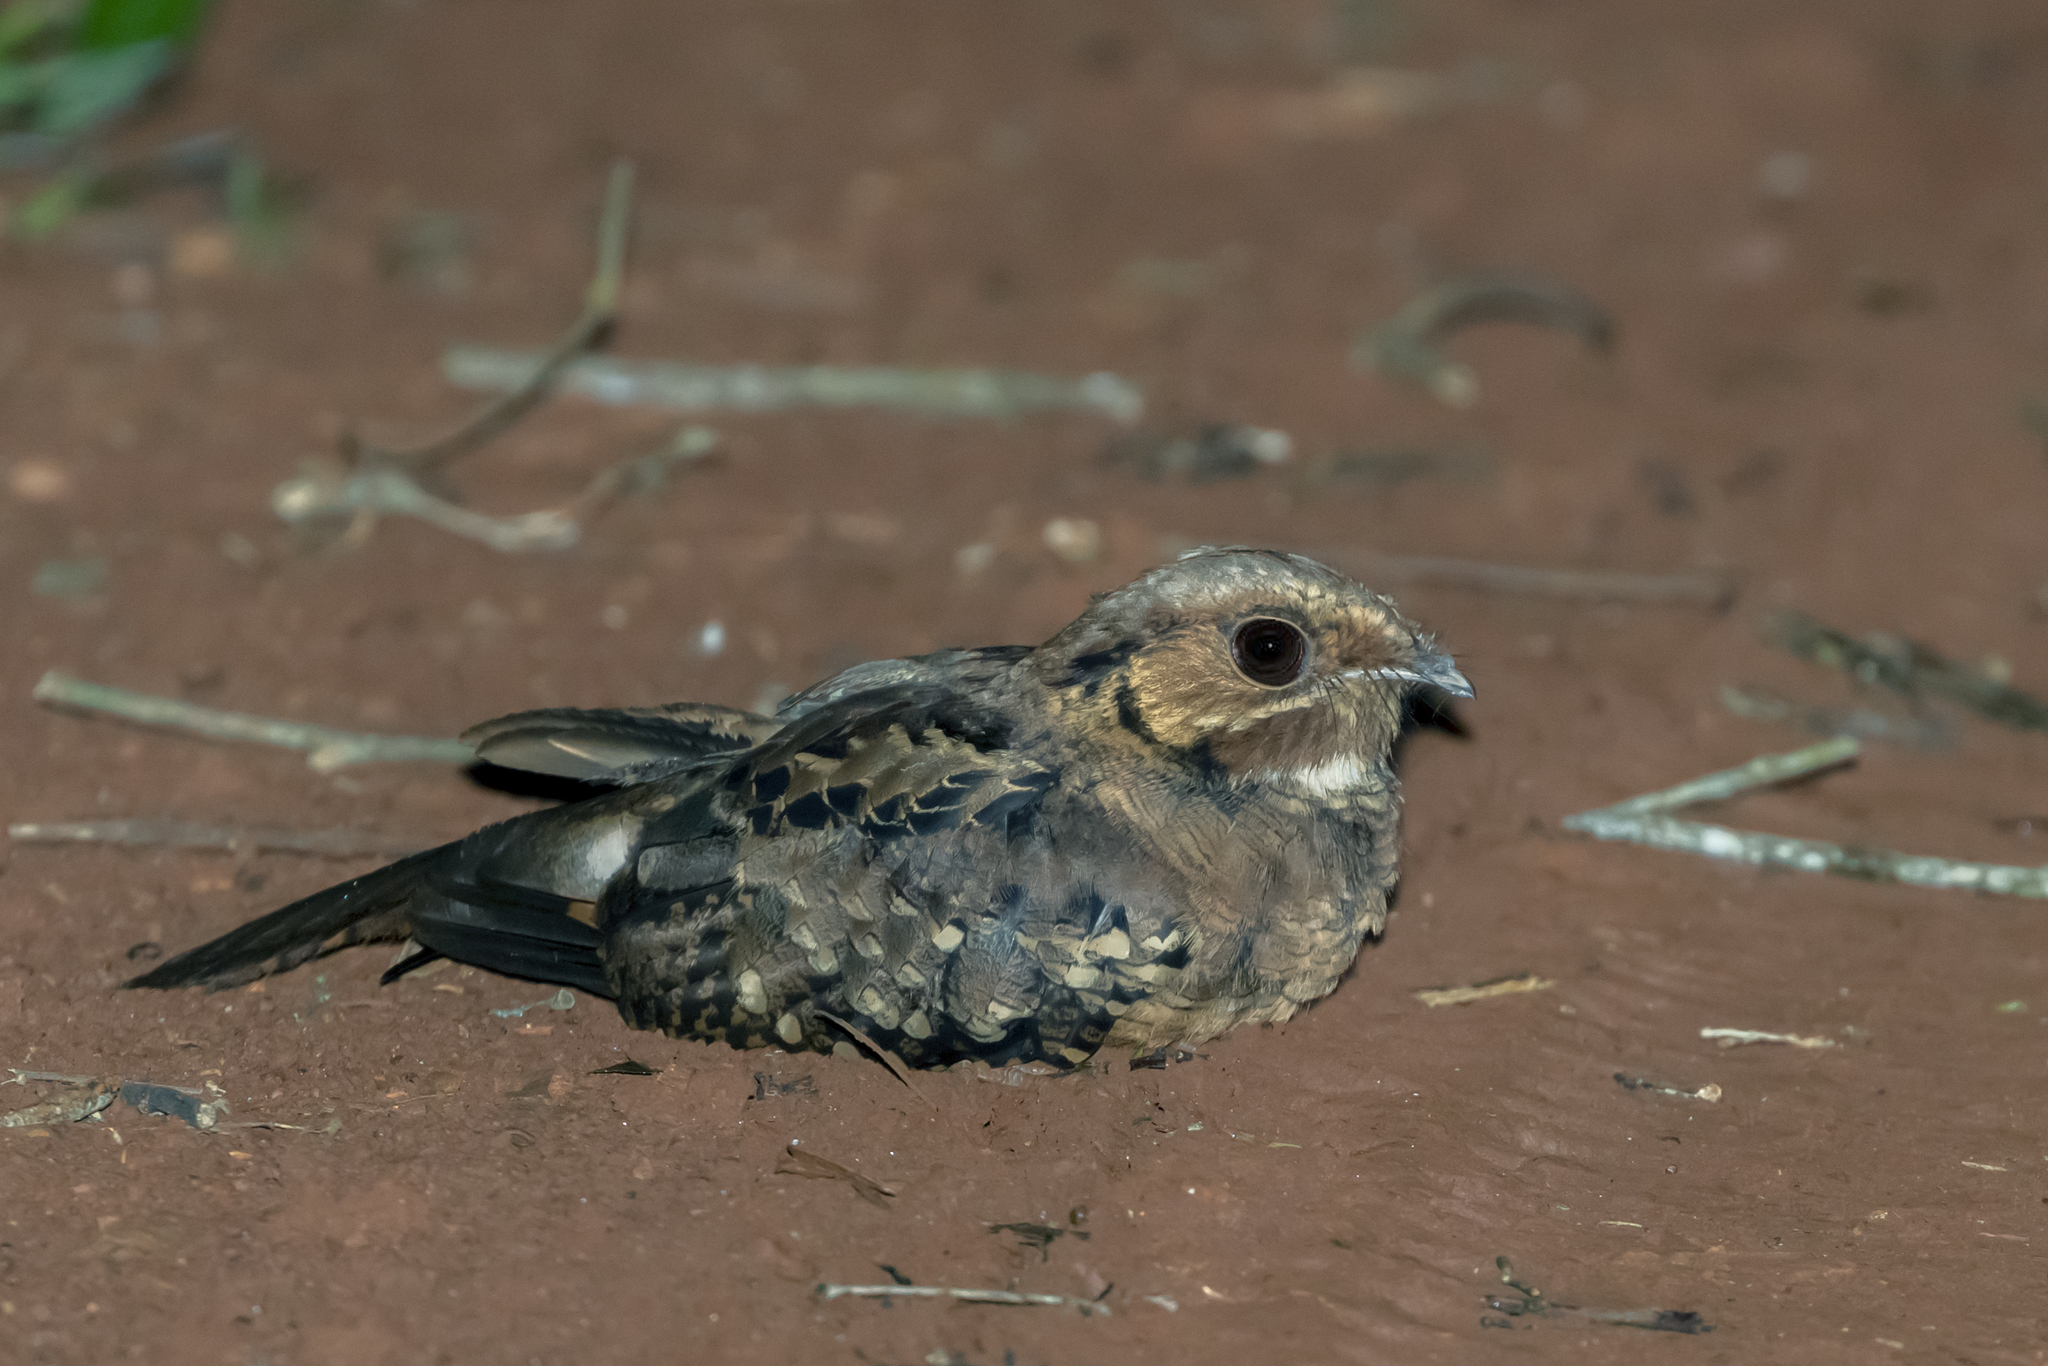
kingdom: Animalia
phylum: Chordata
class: Aves
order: Caprimulgiformes
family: Caprimulgidae
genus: Nyctidromus
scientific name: Nyctidromus albicollis
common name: Pauraque
